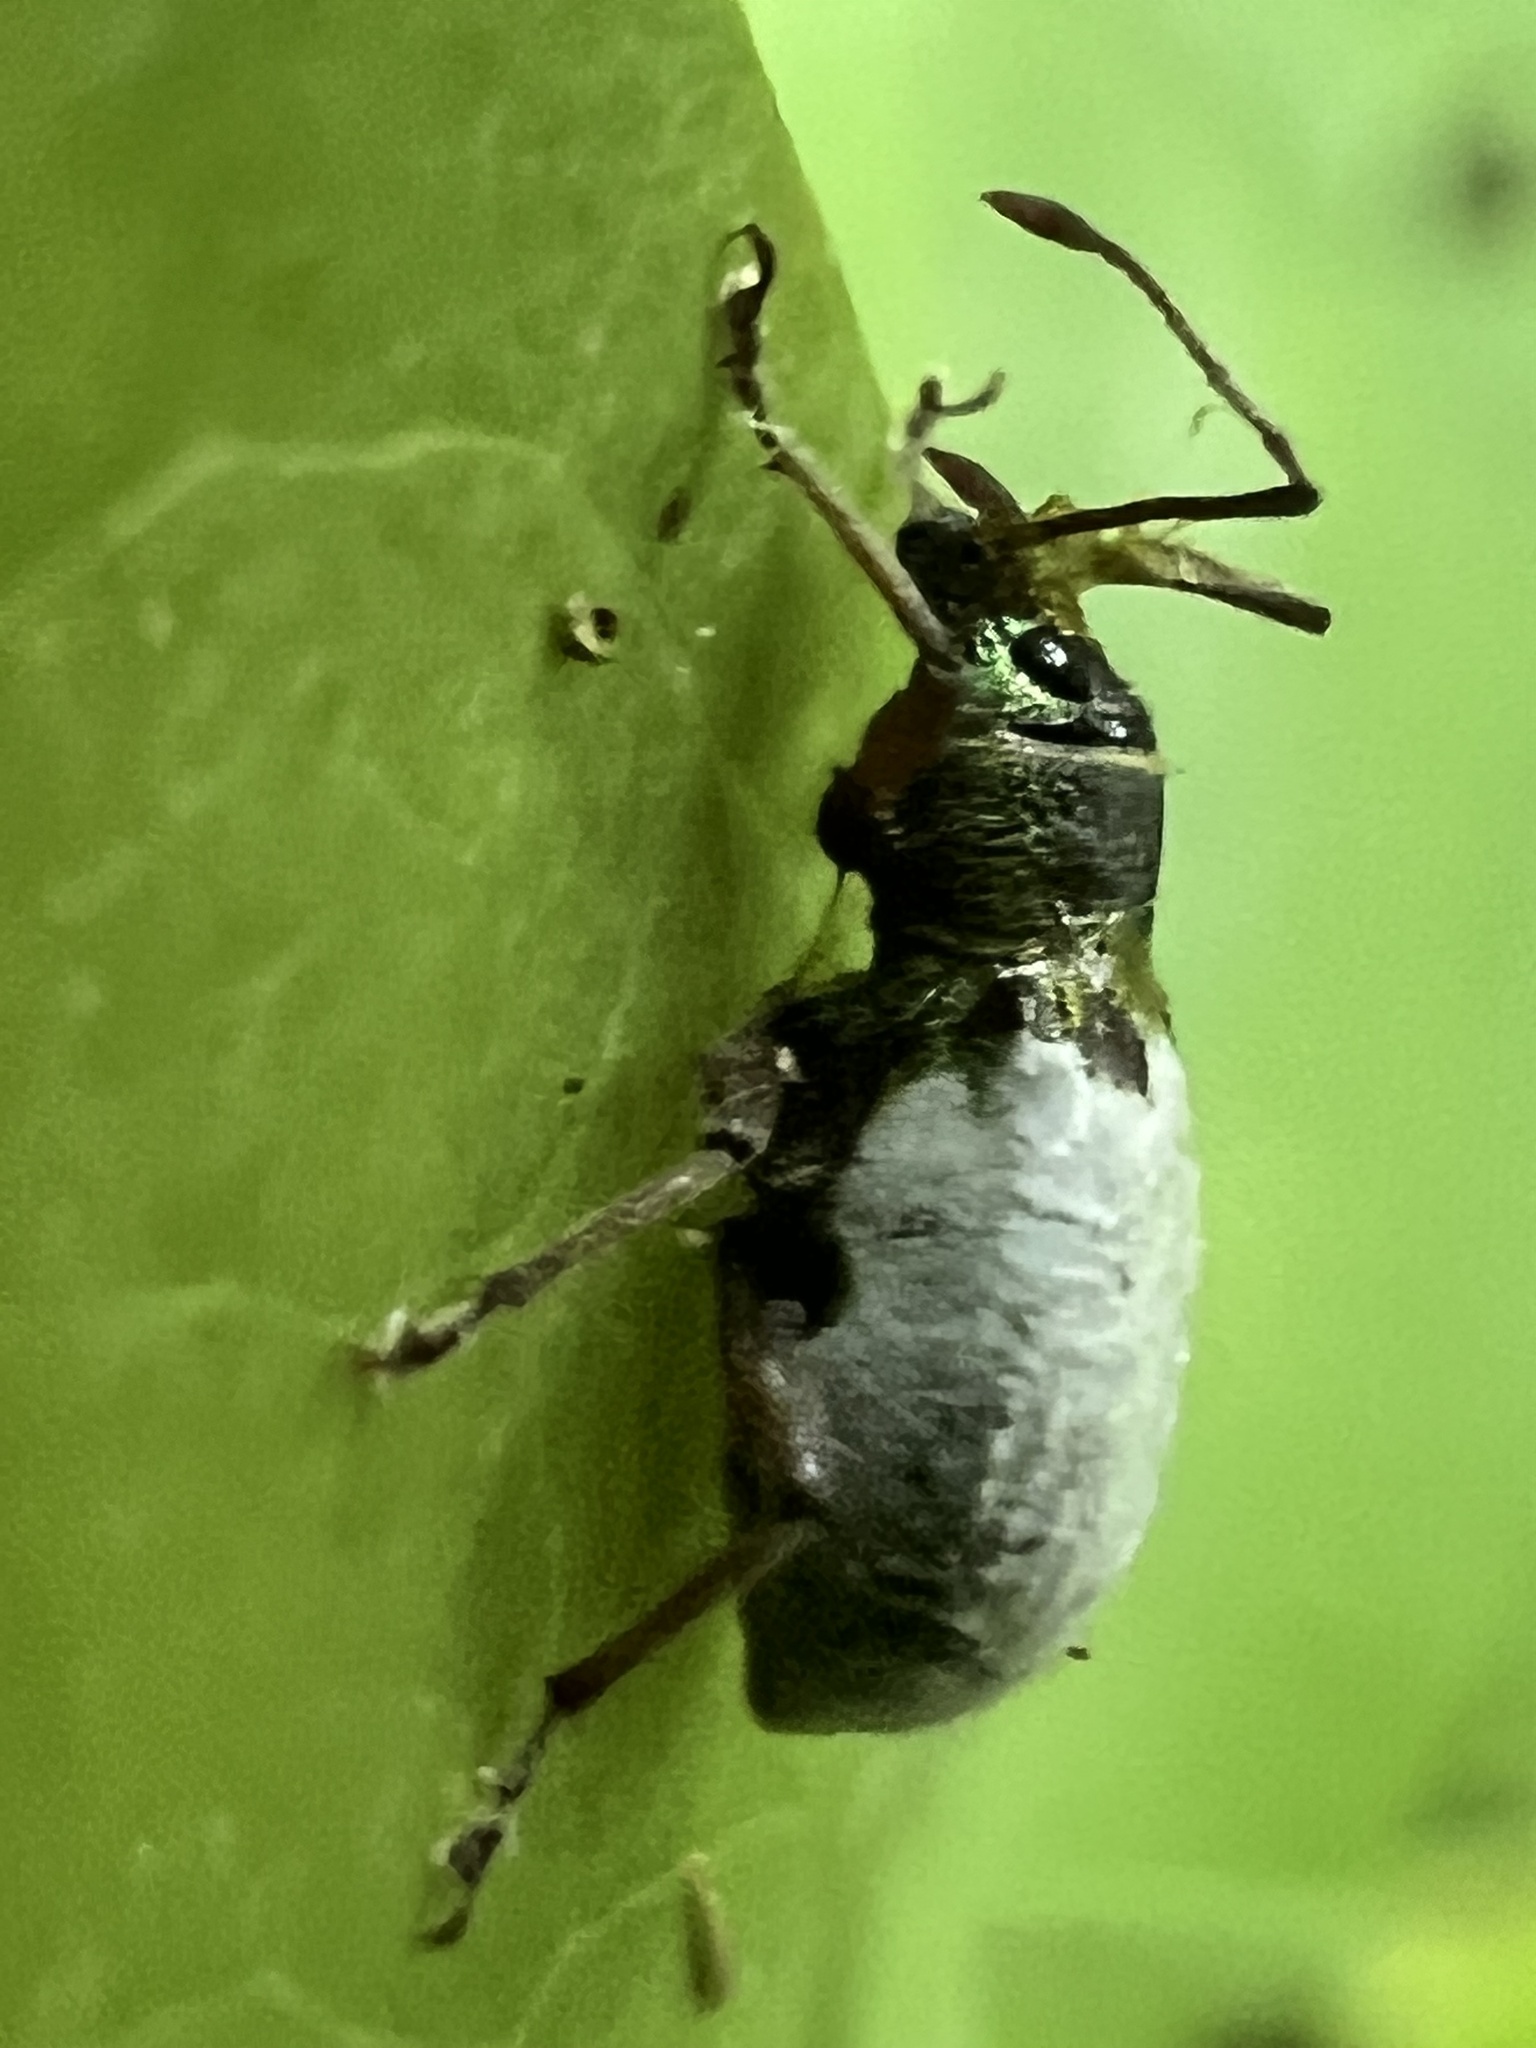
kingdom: Animalia
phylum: Arthropoda
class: Insecta
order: Coleoptera
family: Curculionidae
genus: Cyrtepistomus
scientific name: Cyrtepistomus castaneus
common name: Weevil
